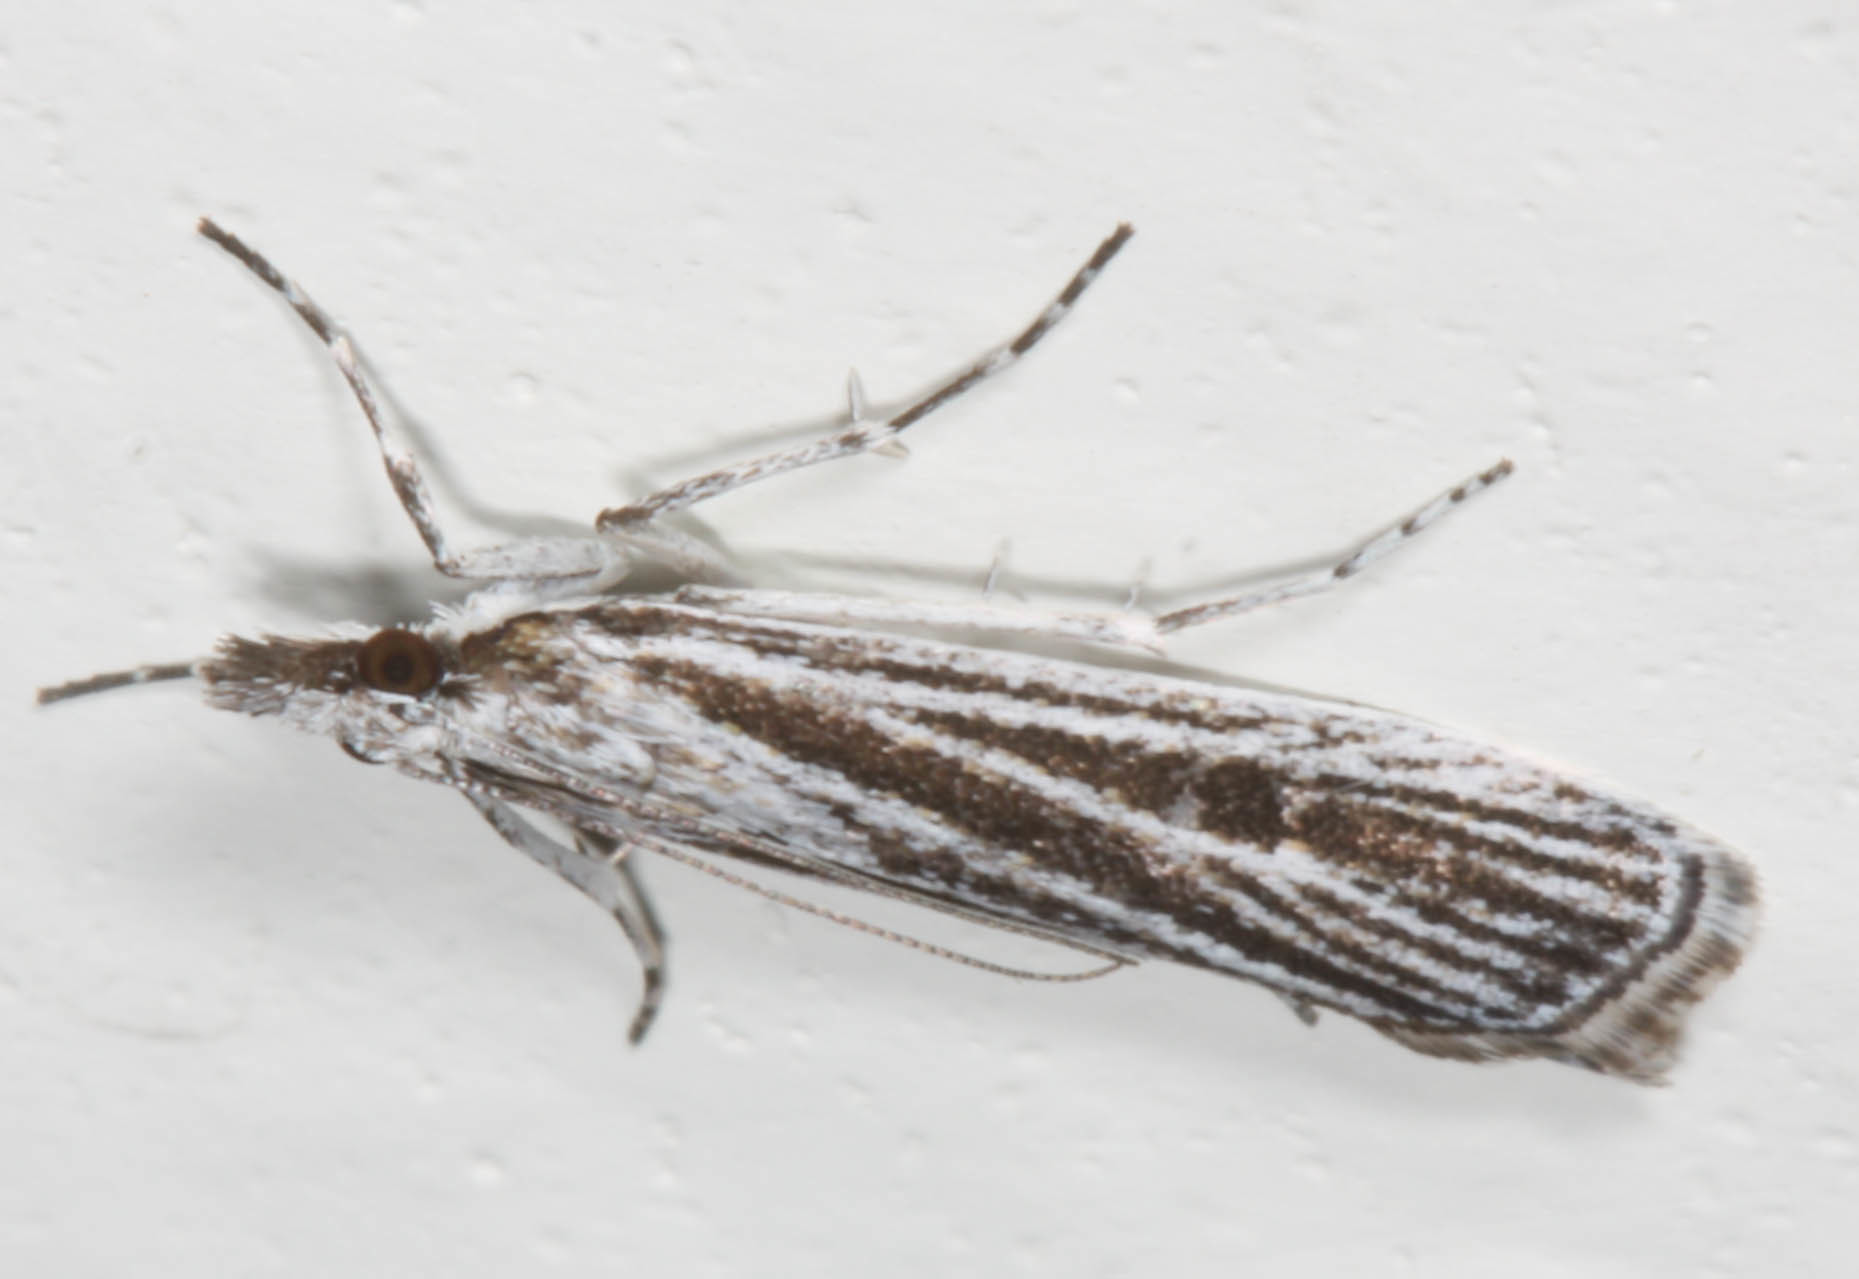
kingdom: Animalia
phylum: Arthropoda
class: Insecta
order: Lepidoptera
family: Crambidae
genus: Eudonia
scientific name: Eudonia venosa
